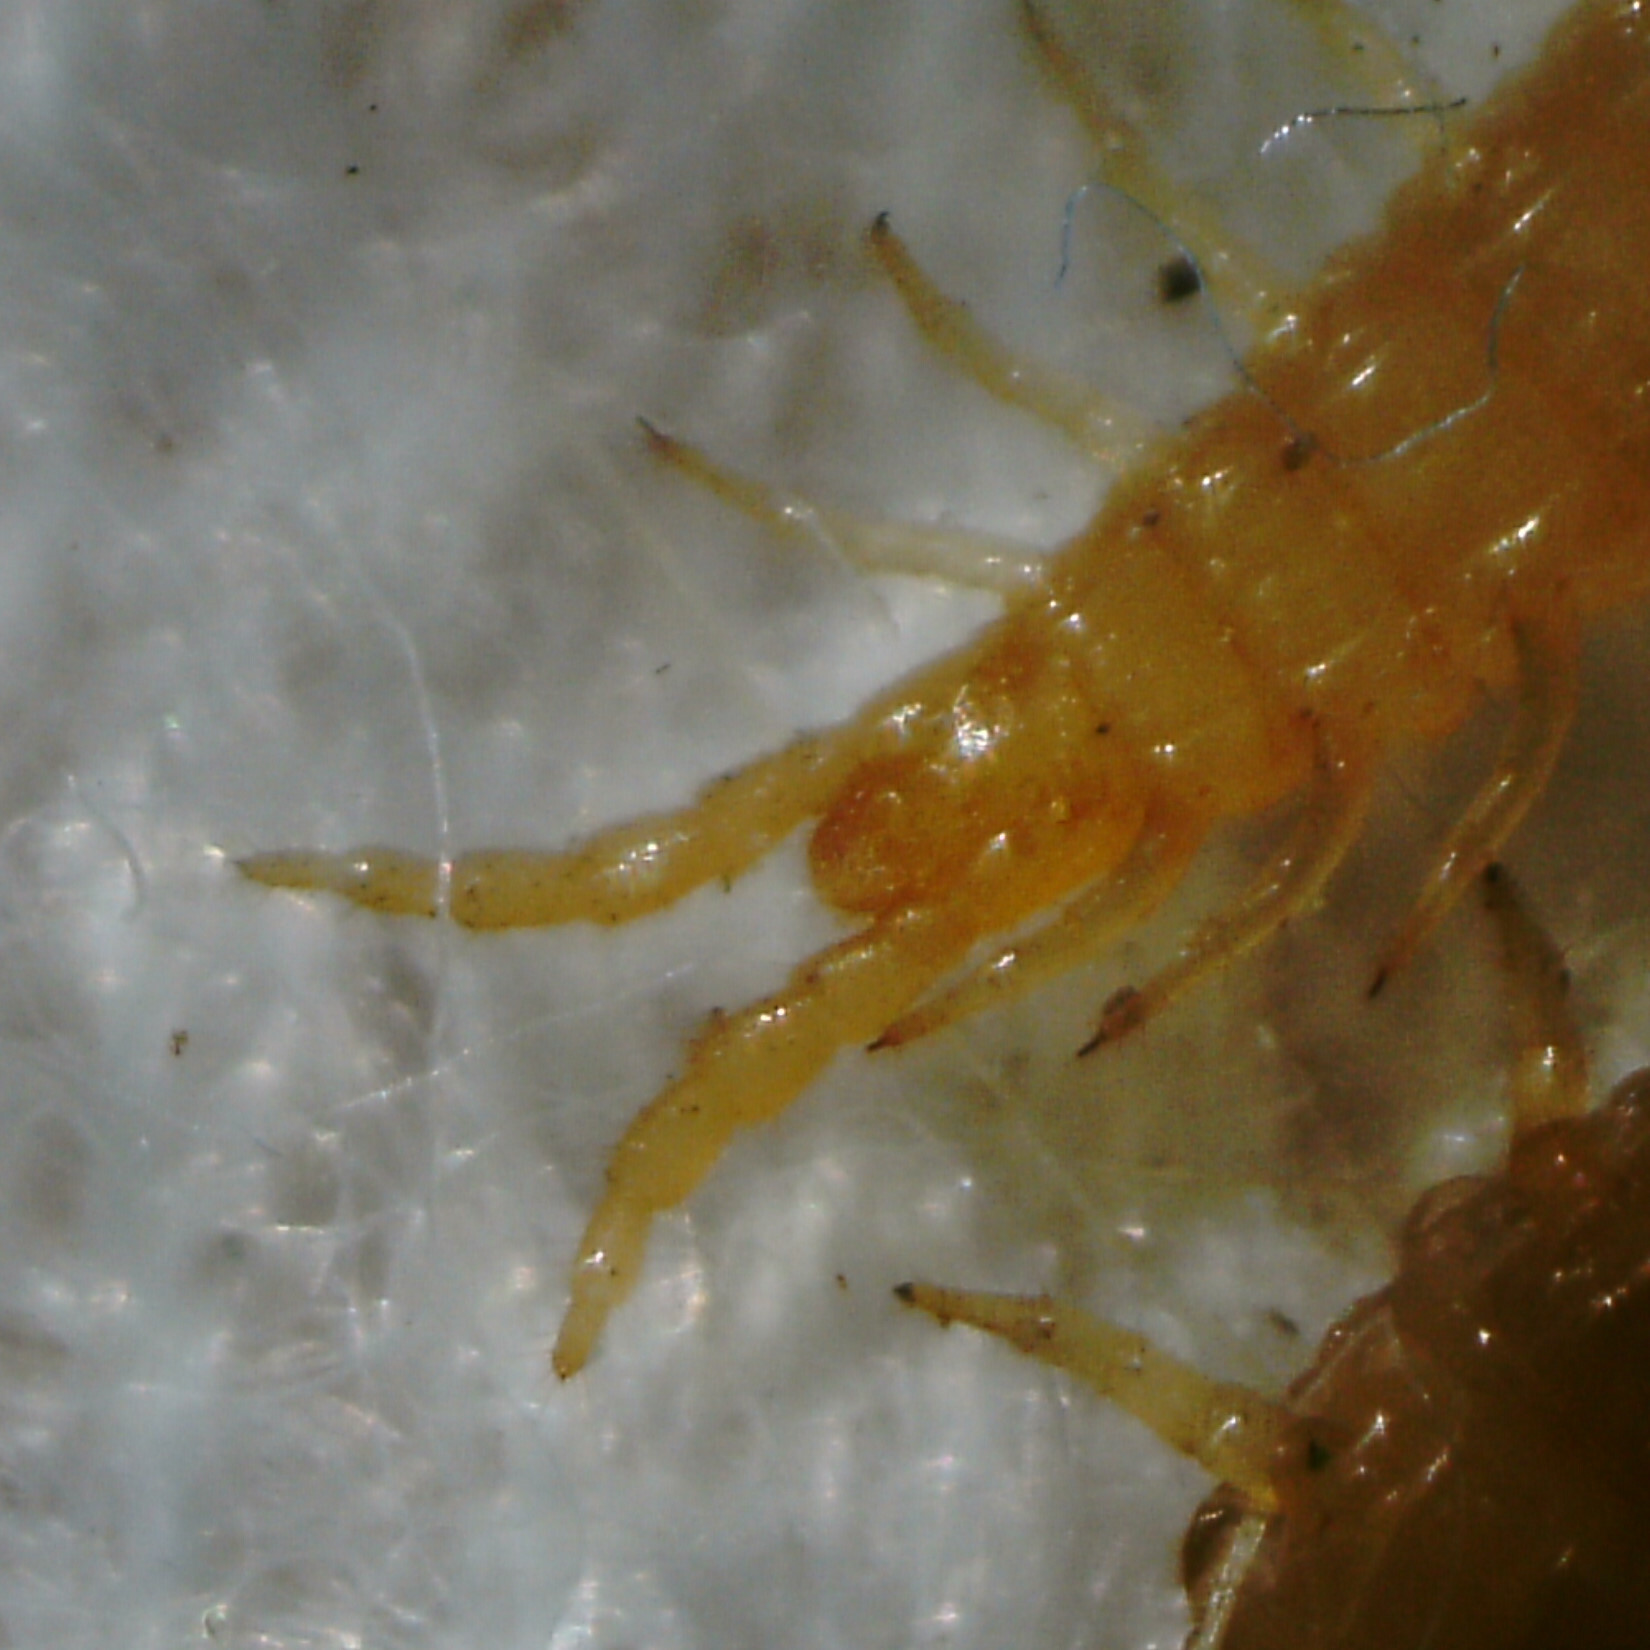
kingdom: Animalia
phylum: Arthropoda
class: Chilopoda
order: Geophilomorpha
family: Geophilidae
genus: Geophilus
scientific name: Geophilus flavus
